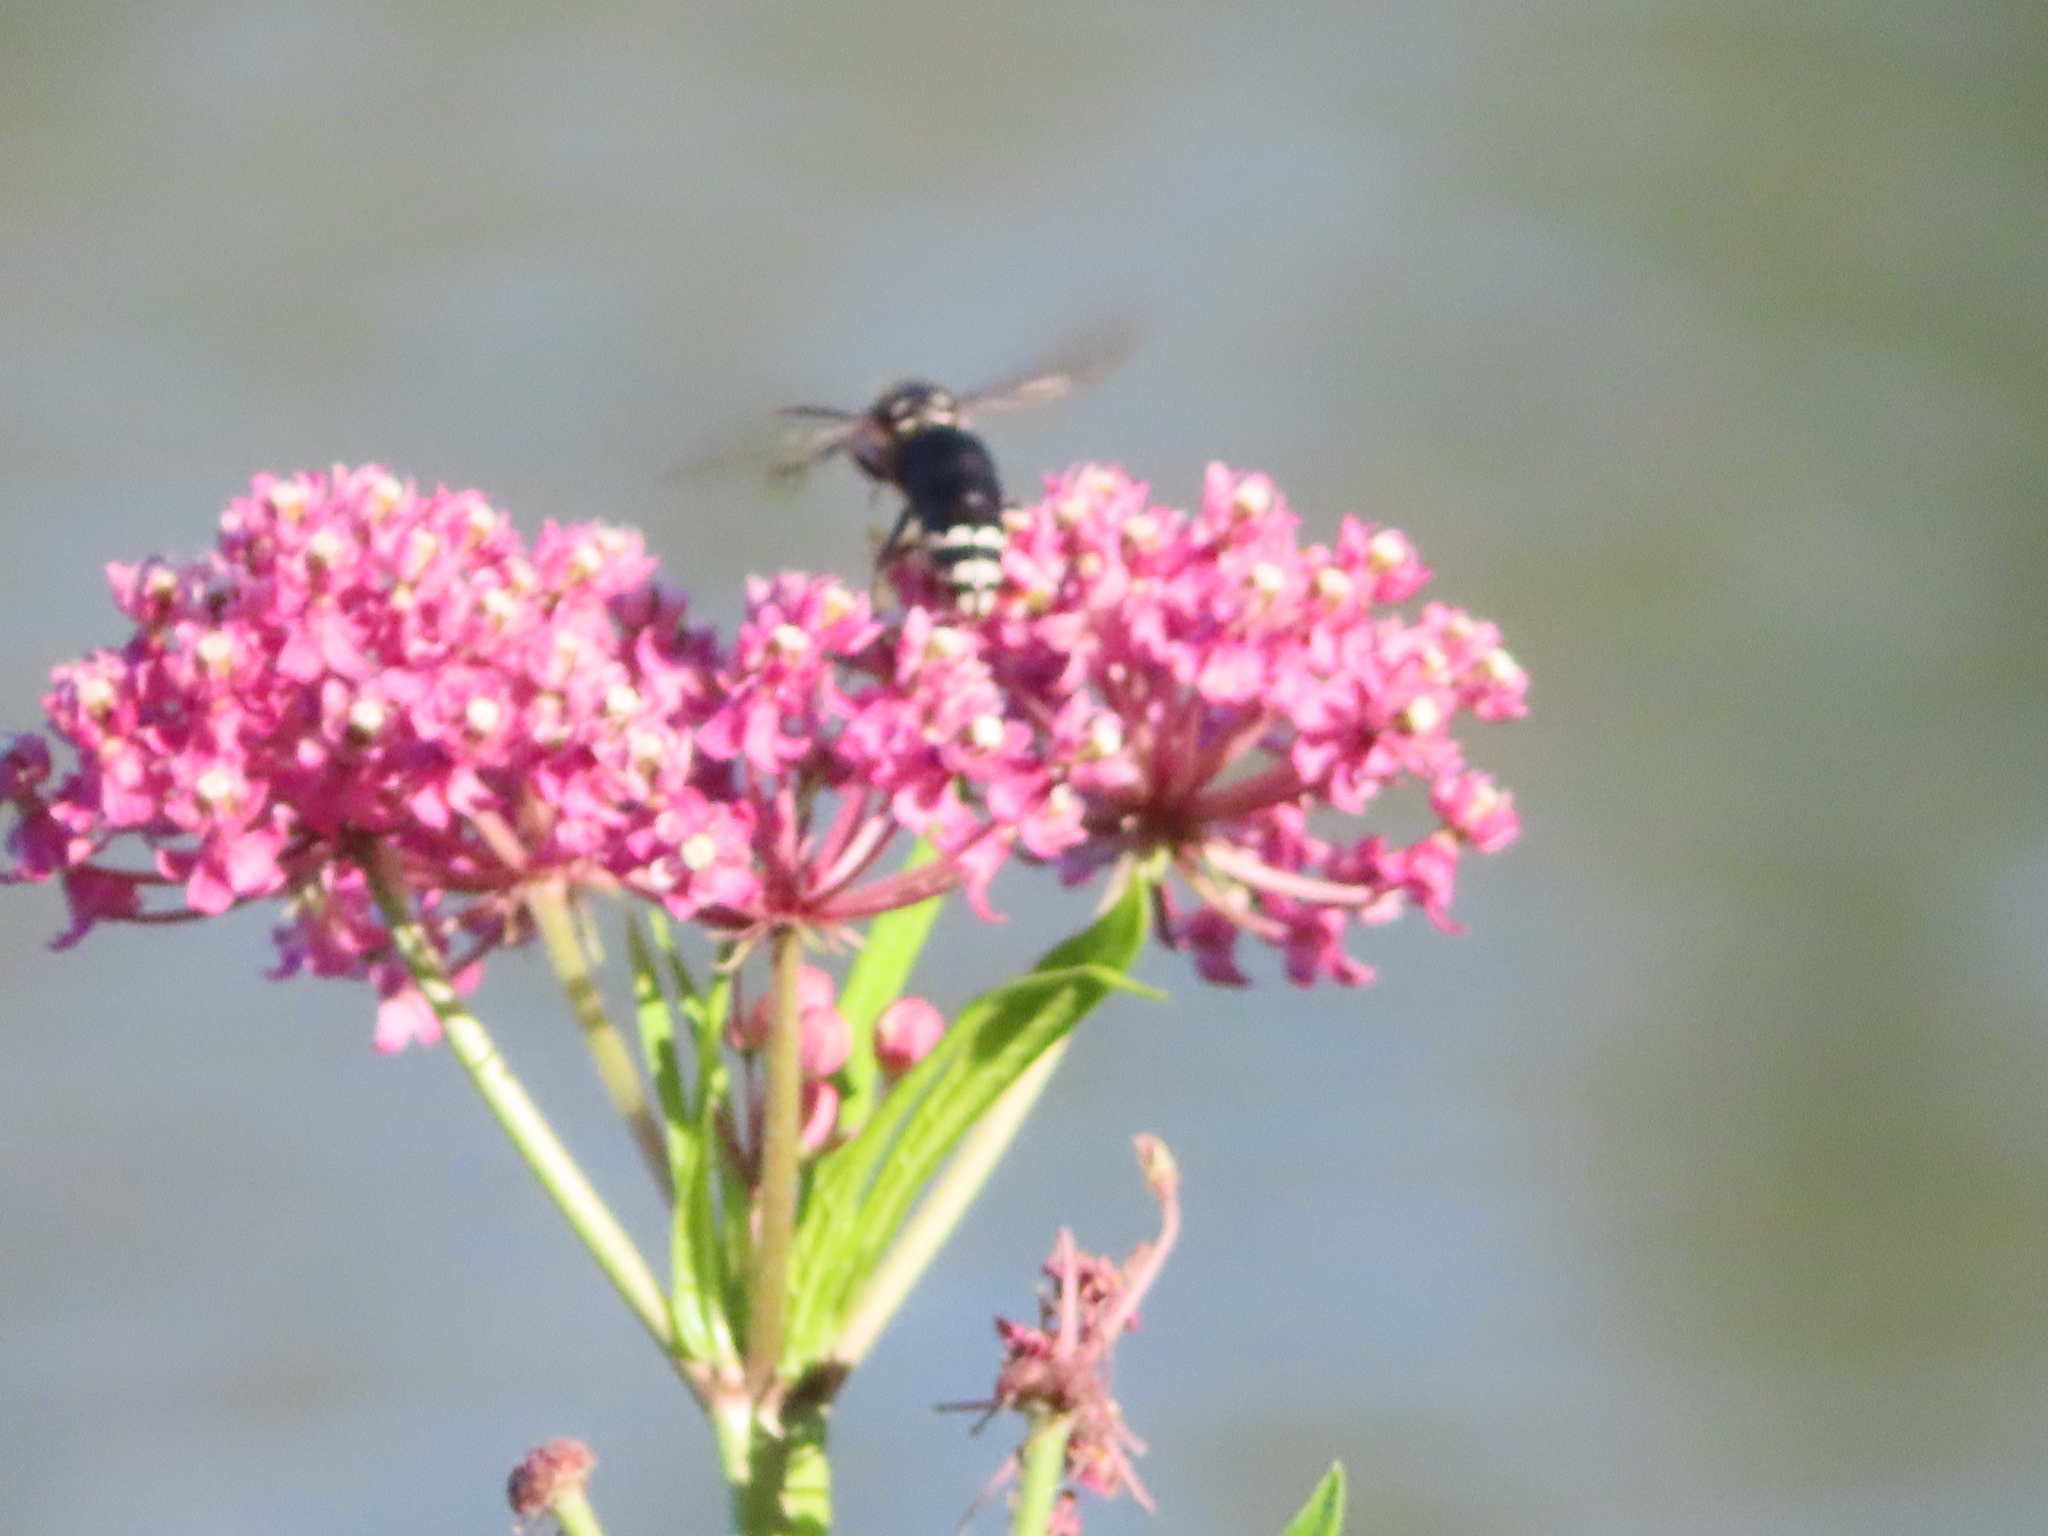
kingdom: Animalia
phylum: Arthropoda
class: Insecta
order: Hymenoptera
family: Vespidae
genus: Dolichovespula
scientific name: Dolichovespula maculata
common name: Bald-faced hornet
